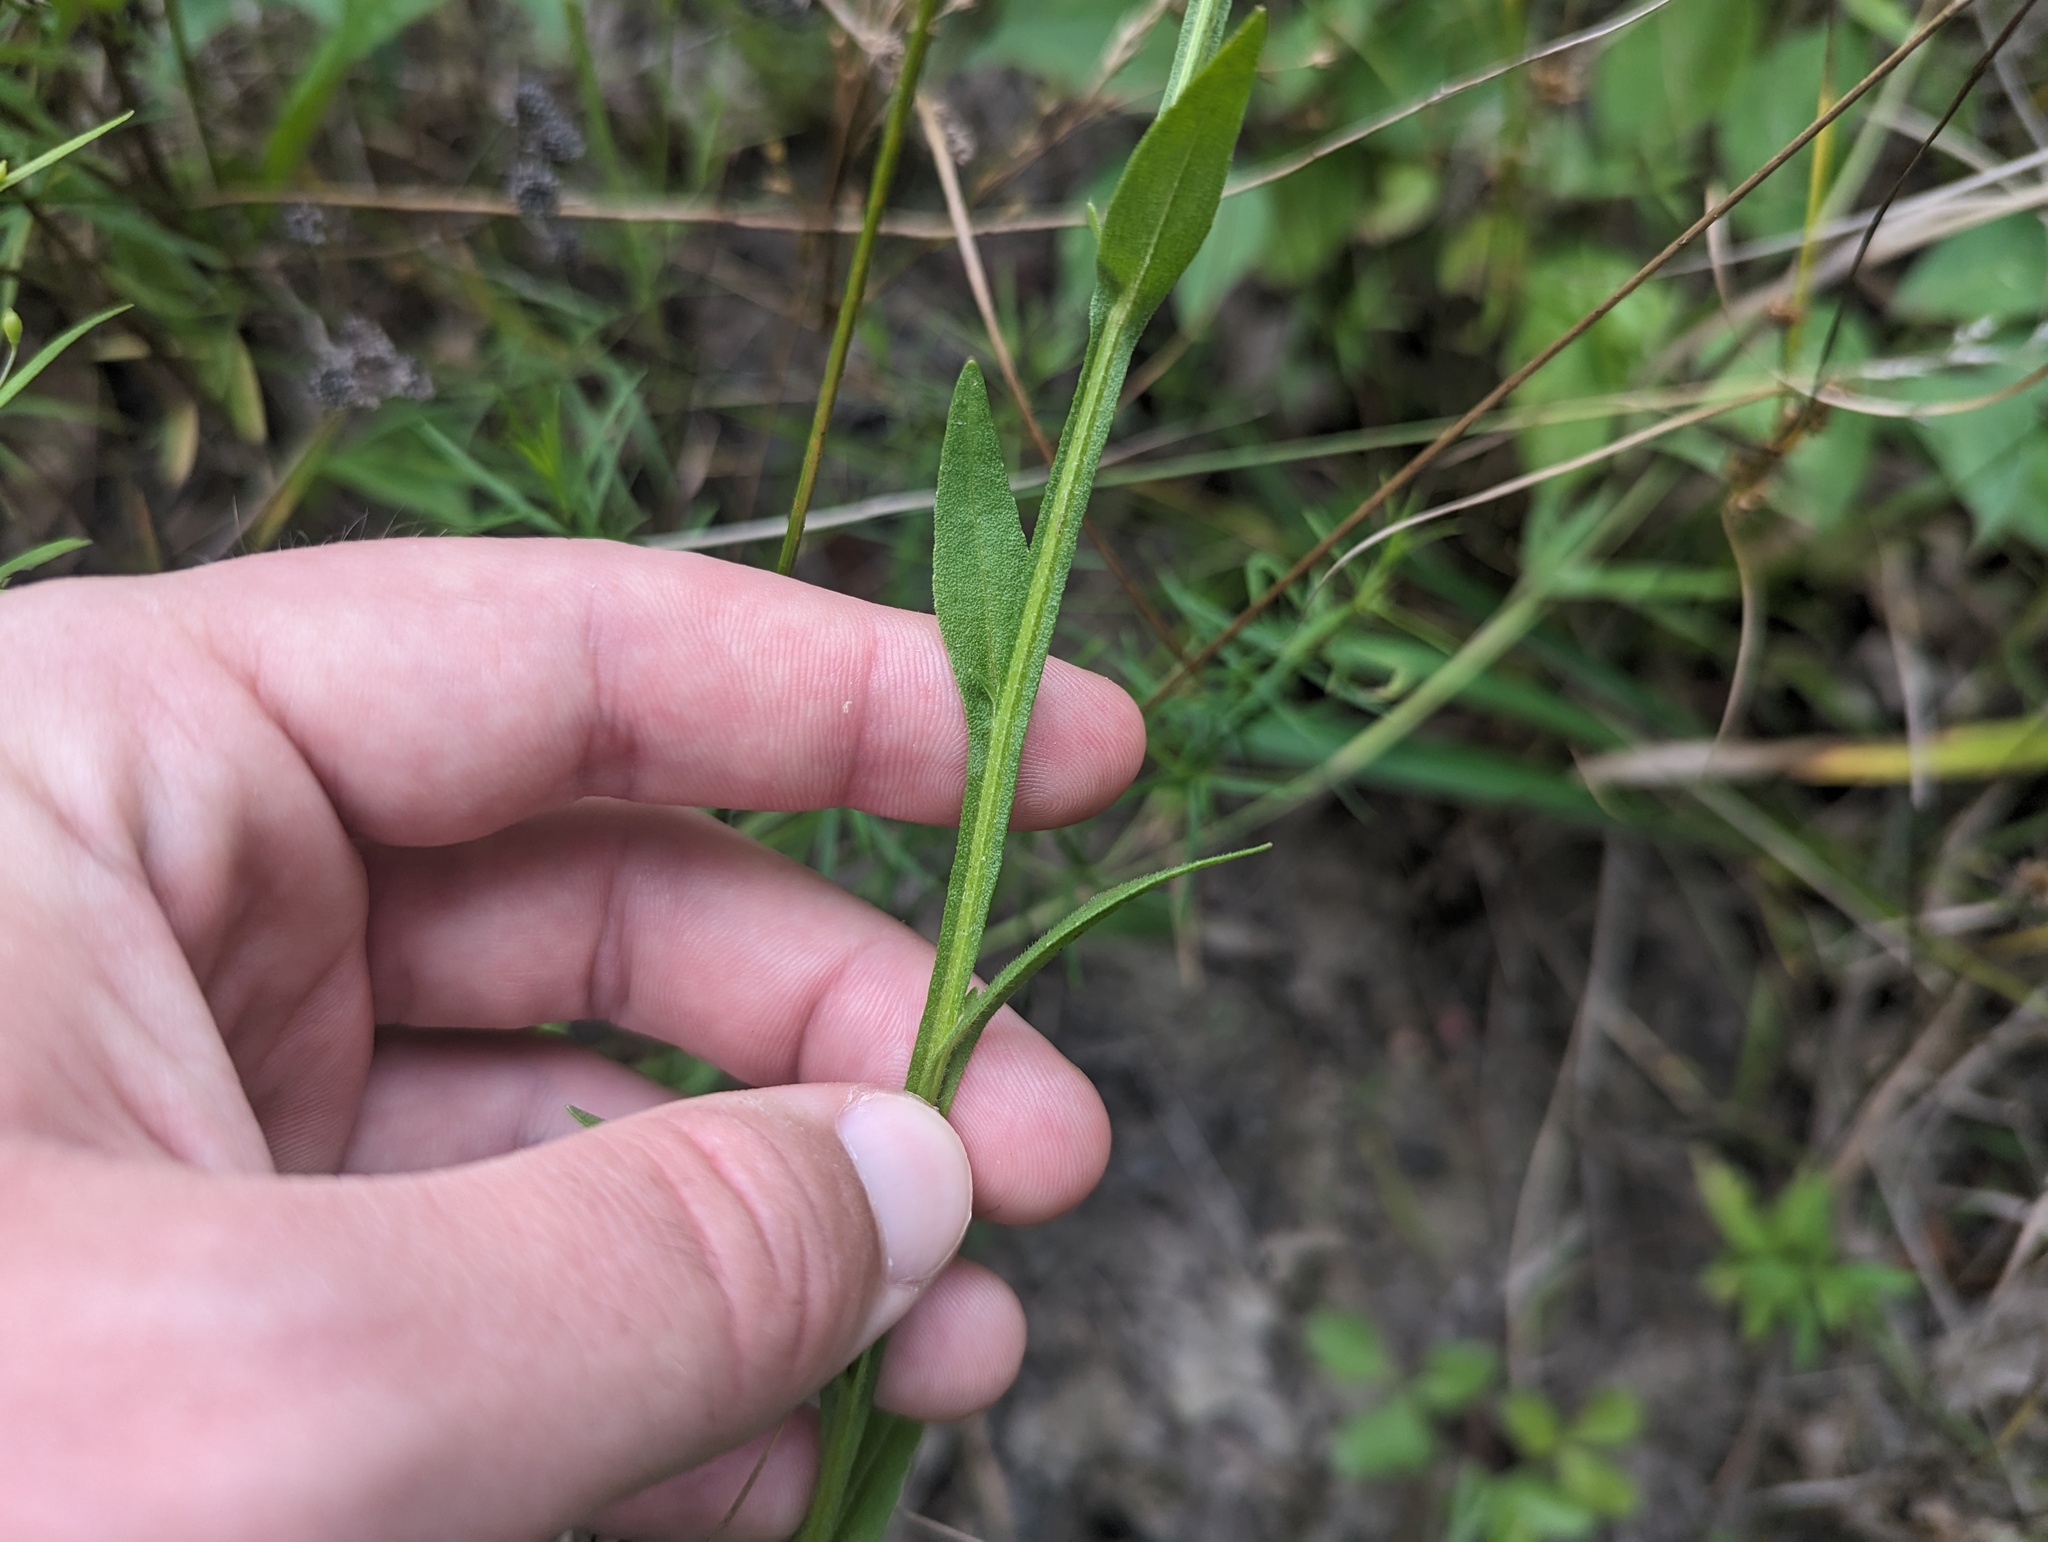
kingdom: Plantae
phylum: Tracheophyta
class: Magnoliopsida
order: Asterales
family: Asteraceae
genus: Helenium
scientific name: Helenium flexuosum
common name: Naked-flowered sneezeweed
